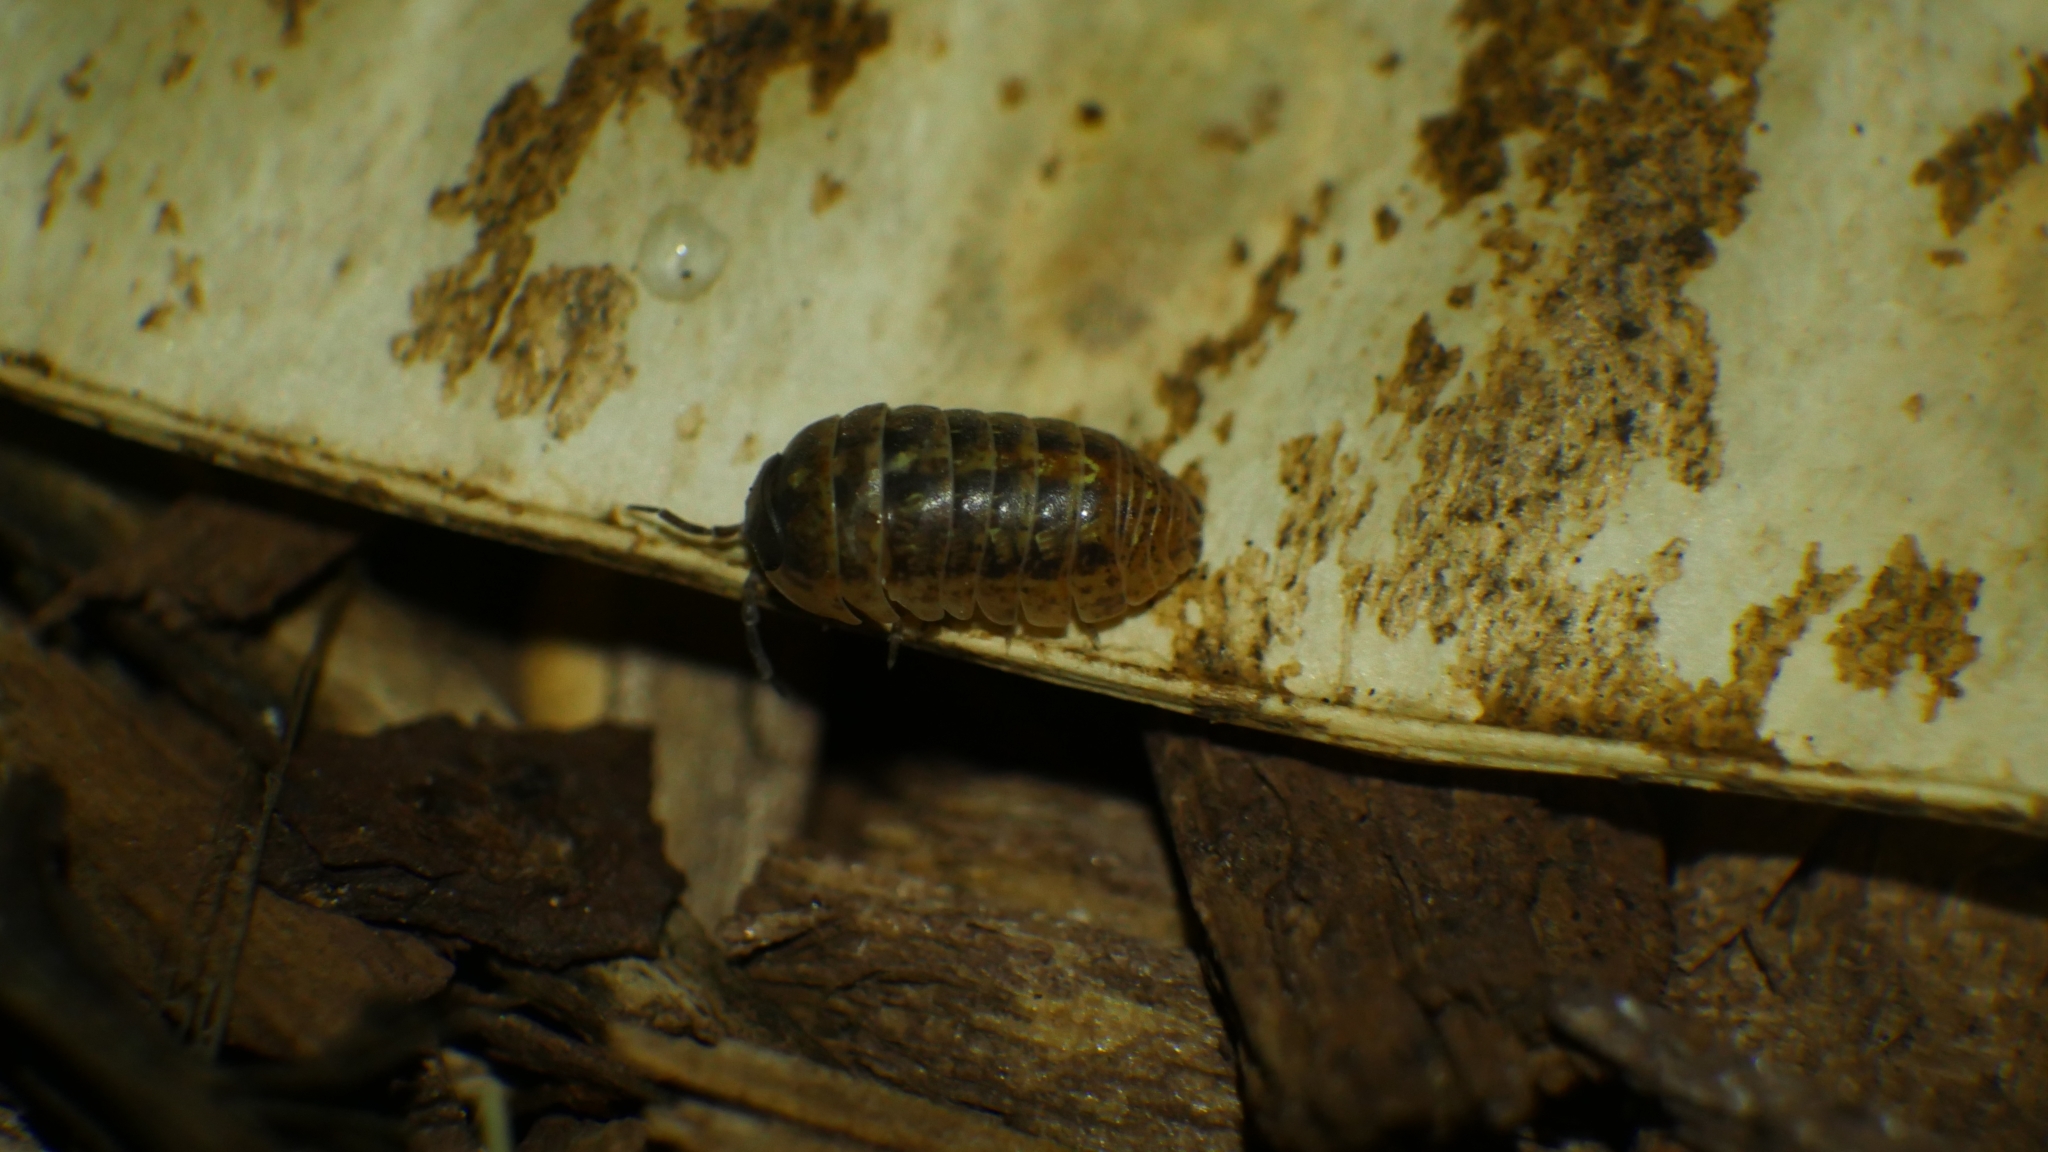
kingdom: Animalia
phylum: Arthropoda
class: Malacostraca
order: Isopoda
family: Armadillidiidae
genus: Armadillidium
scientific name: Armadillidium vulgare
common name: Common pill woodlouse
